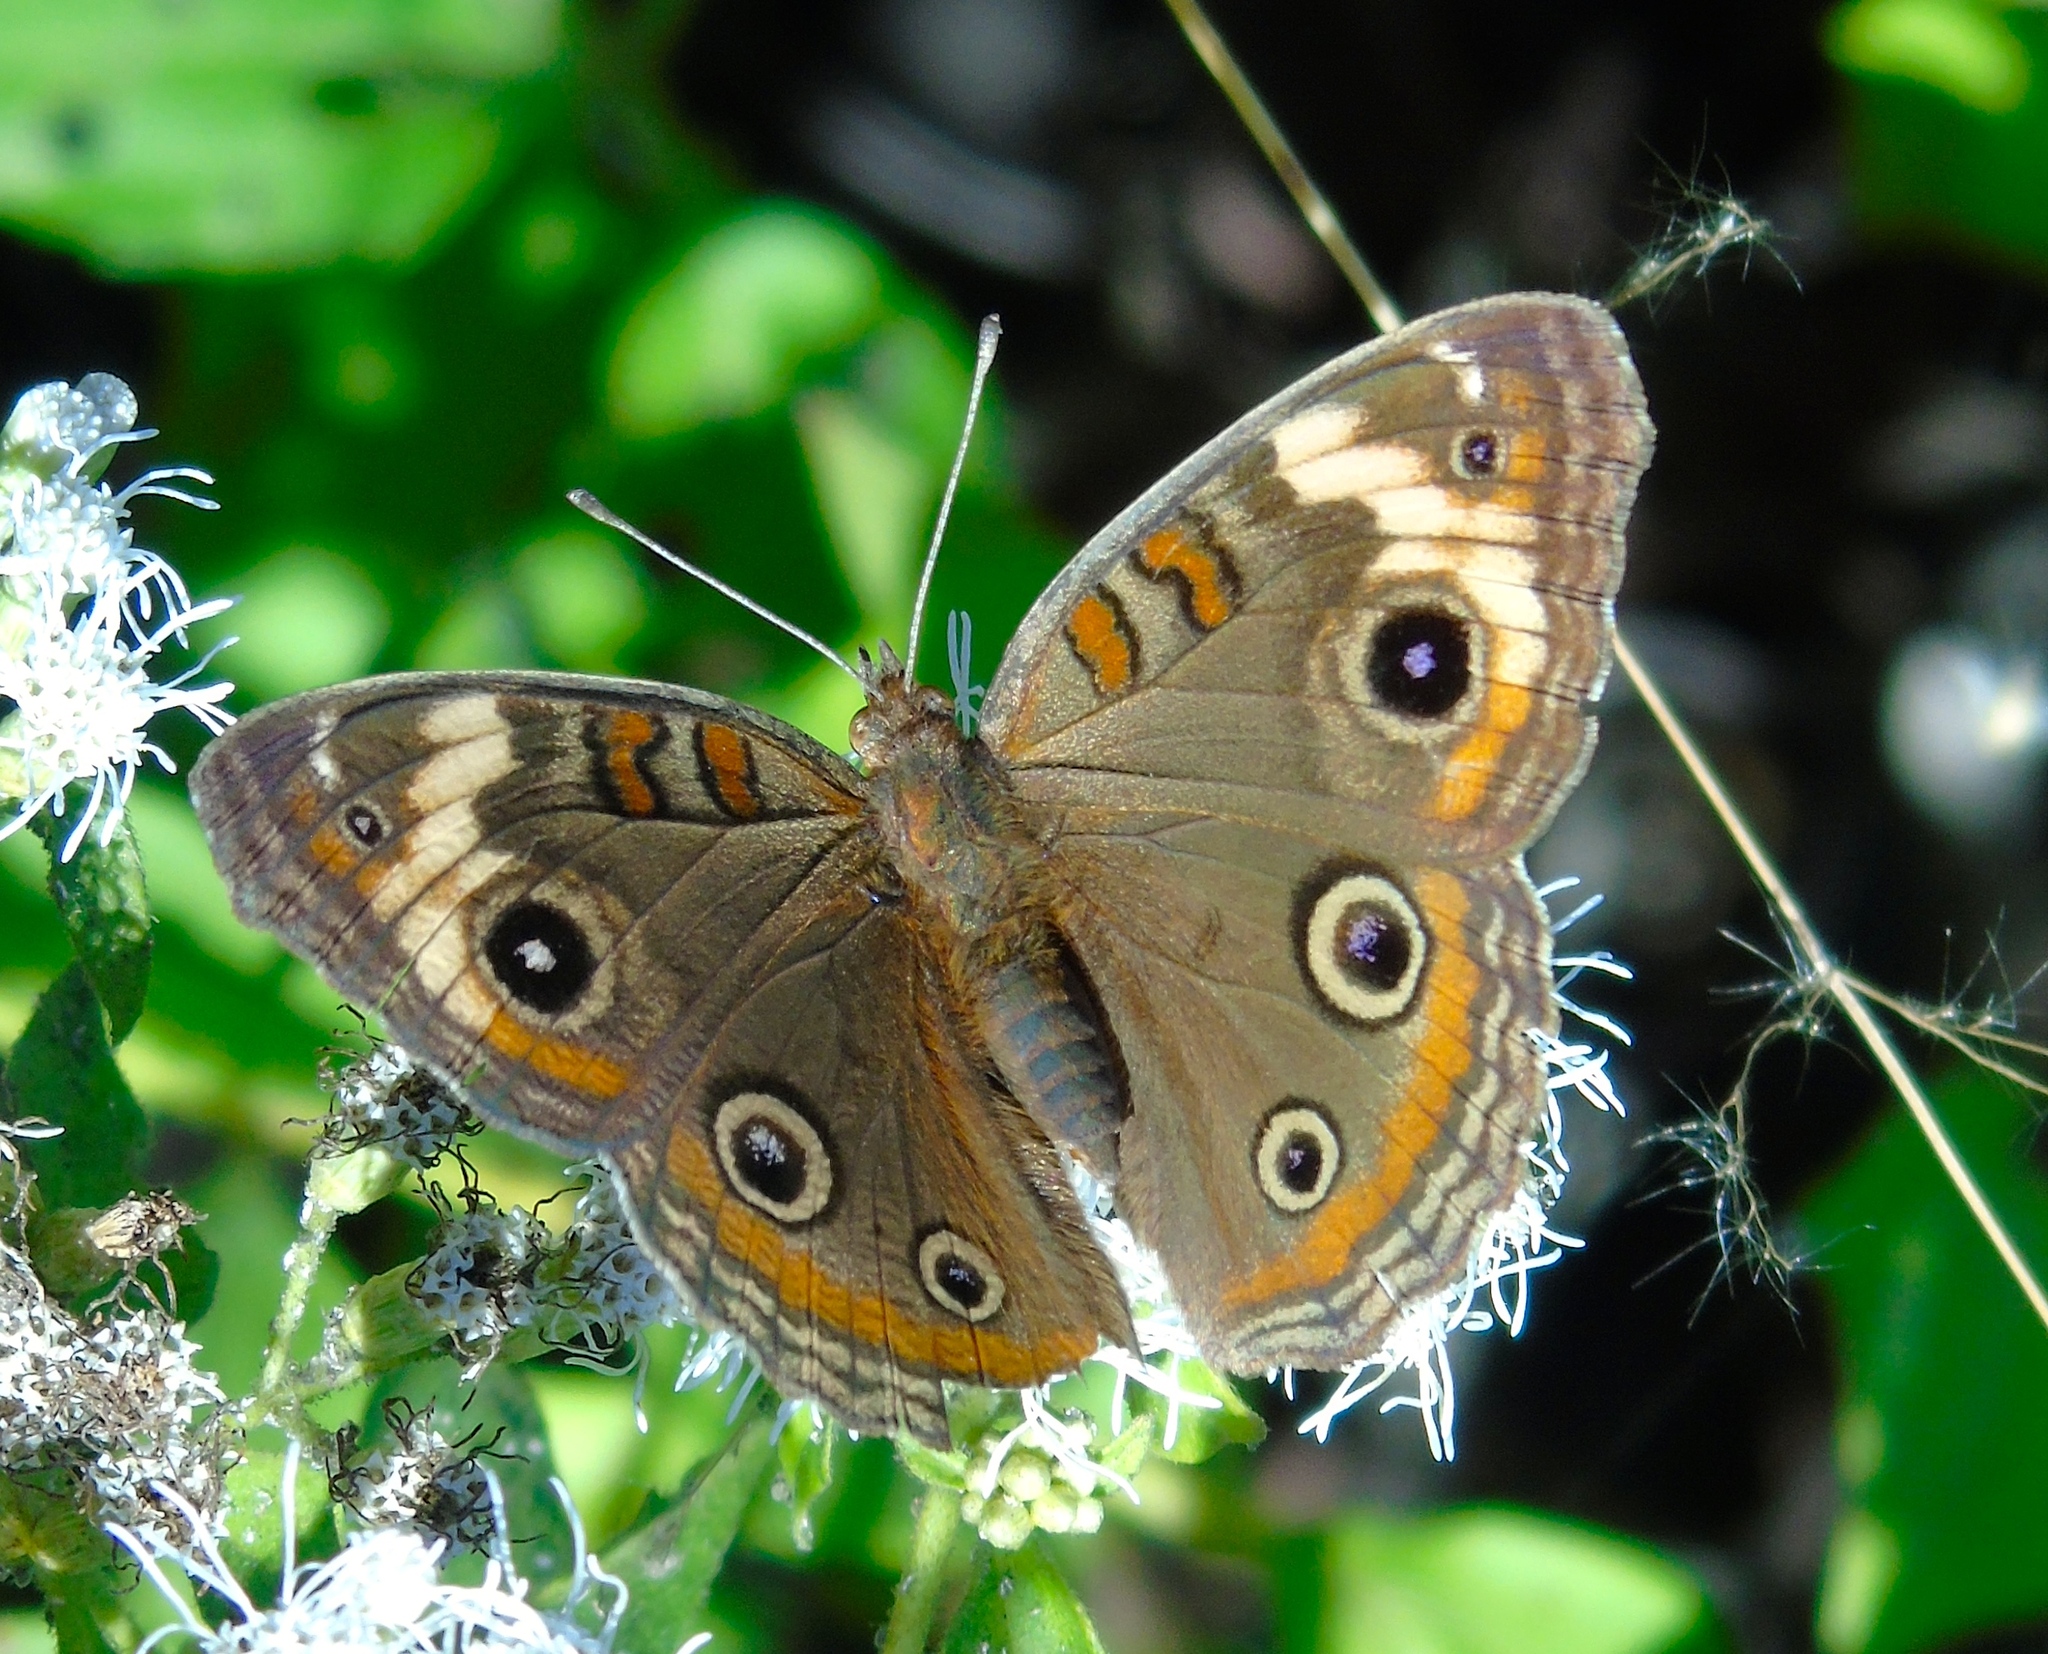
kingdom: Animalia
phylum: Arthropoda
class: Insecta
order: Lepidoptera
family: Nymphalidae
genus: Junonia
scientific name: Junonia coenia
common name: Common buckeye
